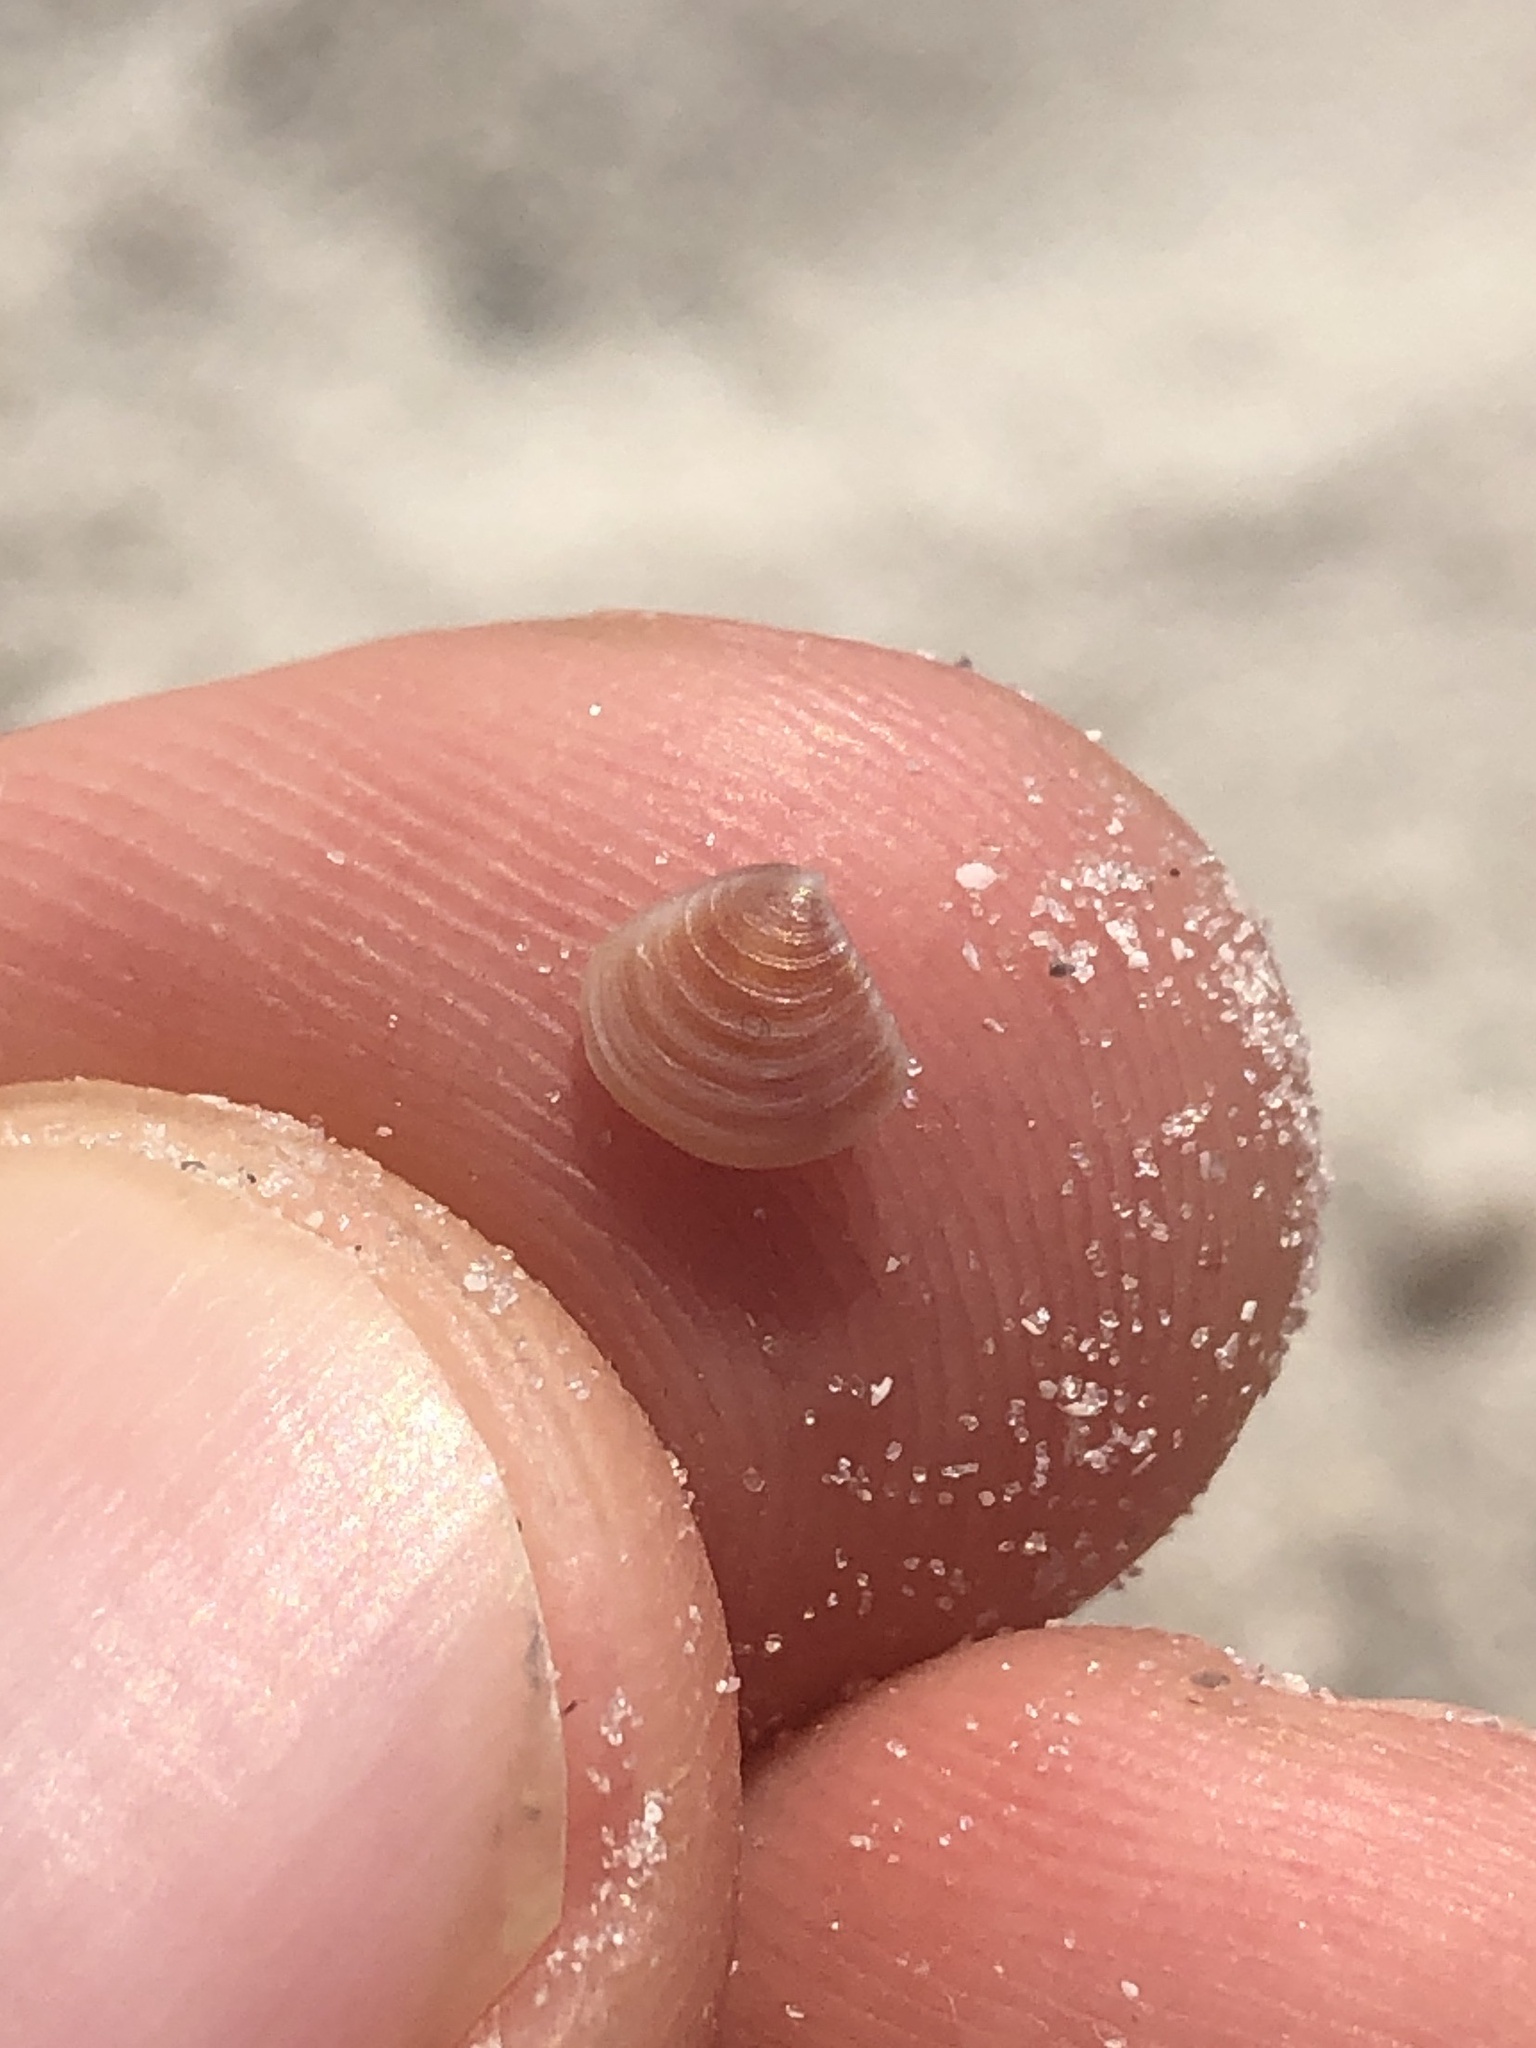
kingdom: Animalia
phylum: Mollusca
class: Bivalvia
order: Carditida
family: Crassatellidae
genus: Crassinella
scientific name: Crassinella lunulata
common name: Lunate crassinella
